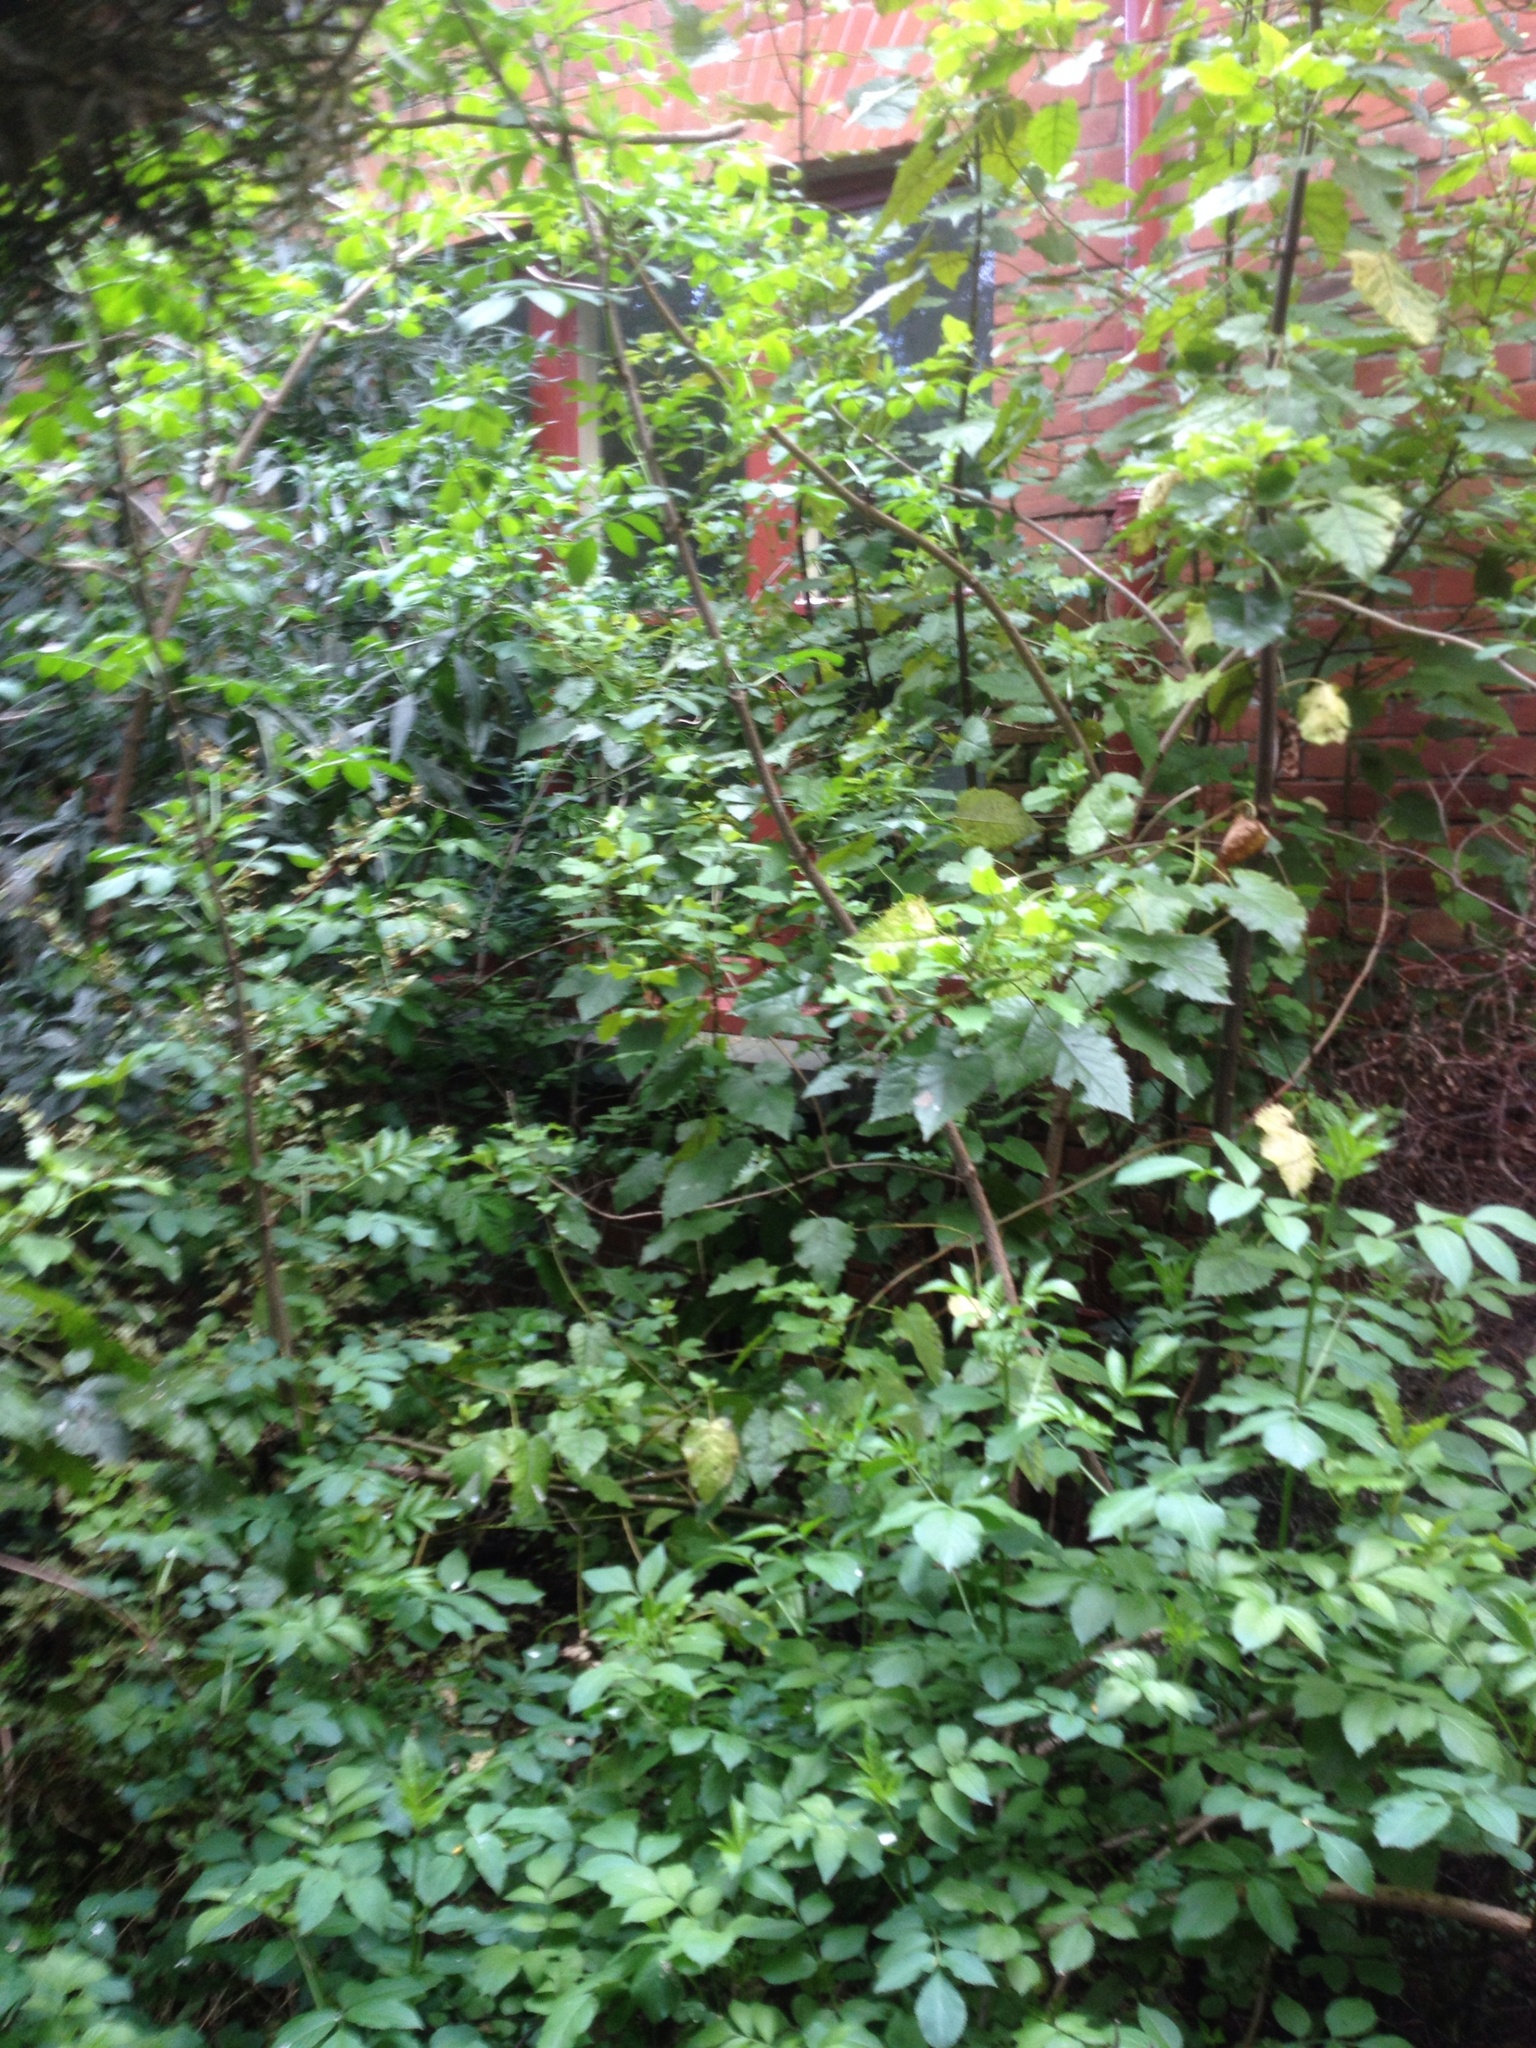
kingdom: Plantae
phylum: Tracheophyta
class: Magnoliopsida
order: Dipsacales
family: Viburnaceae
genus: Sambucus
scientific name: Sambucus nigra
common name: Elder
